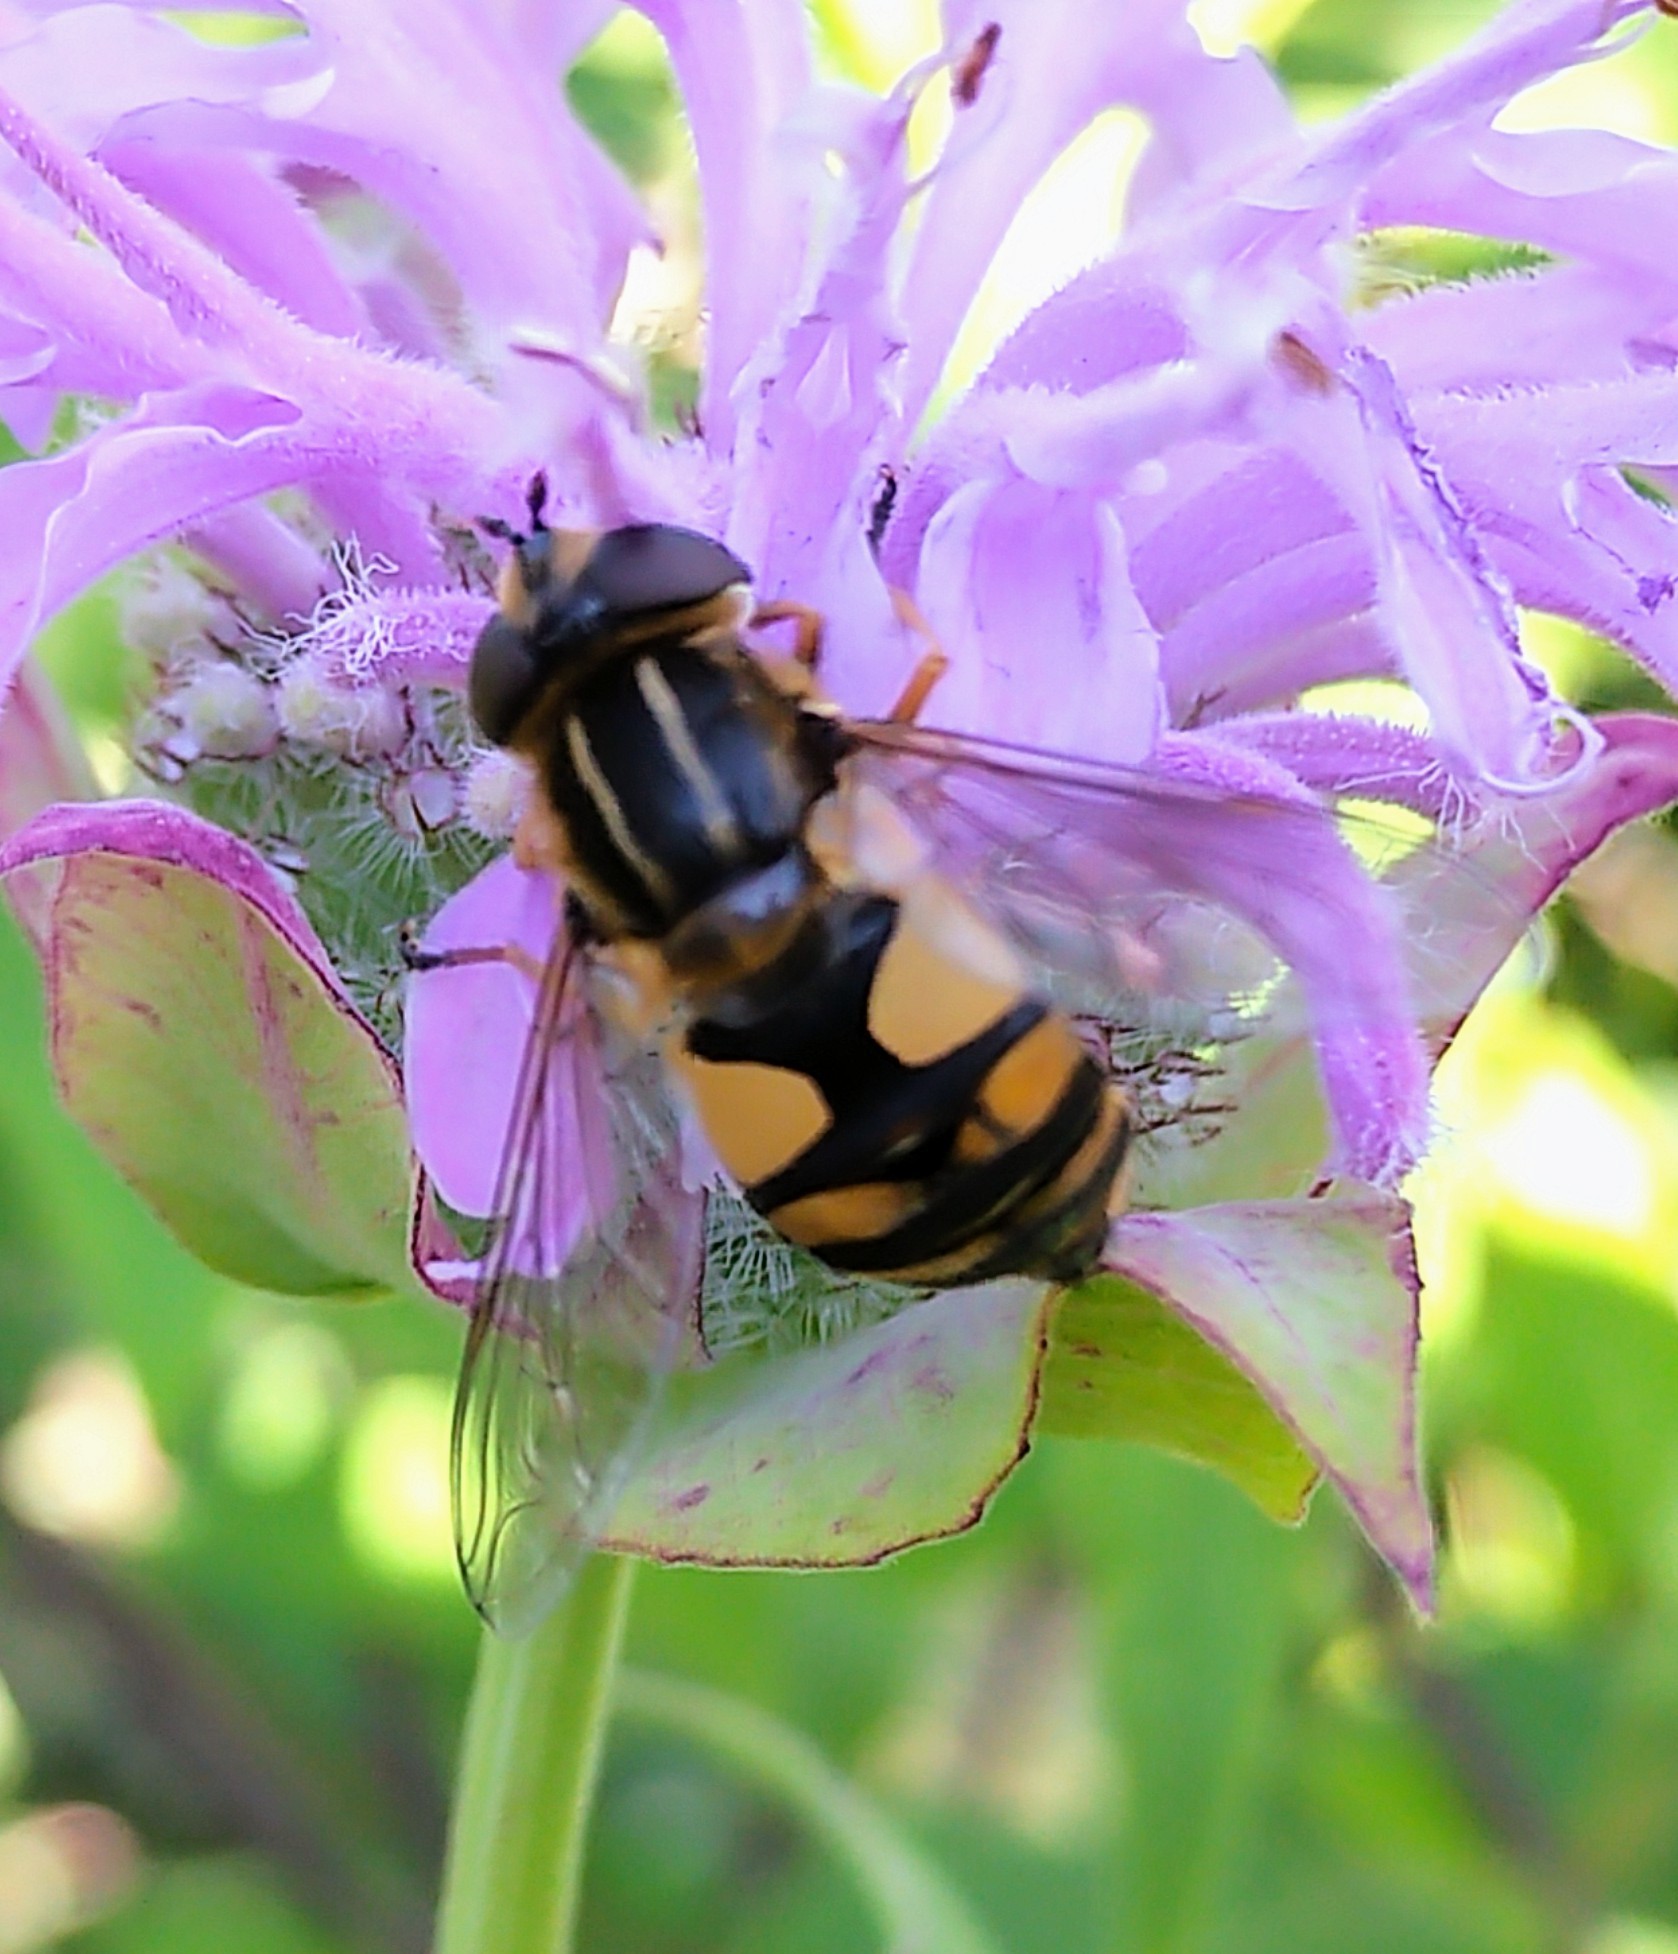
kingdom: Animalia
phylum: Arthropoda
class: Insecta
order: Diptera
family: Syrphidae
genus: Helophilus
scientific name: Helophilus hybridus
